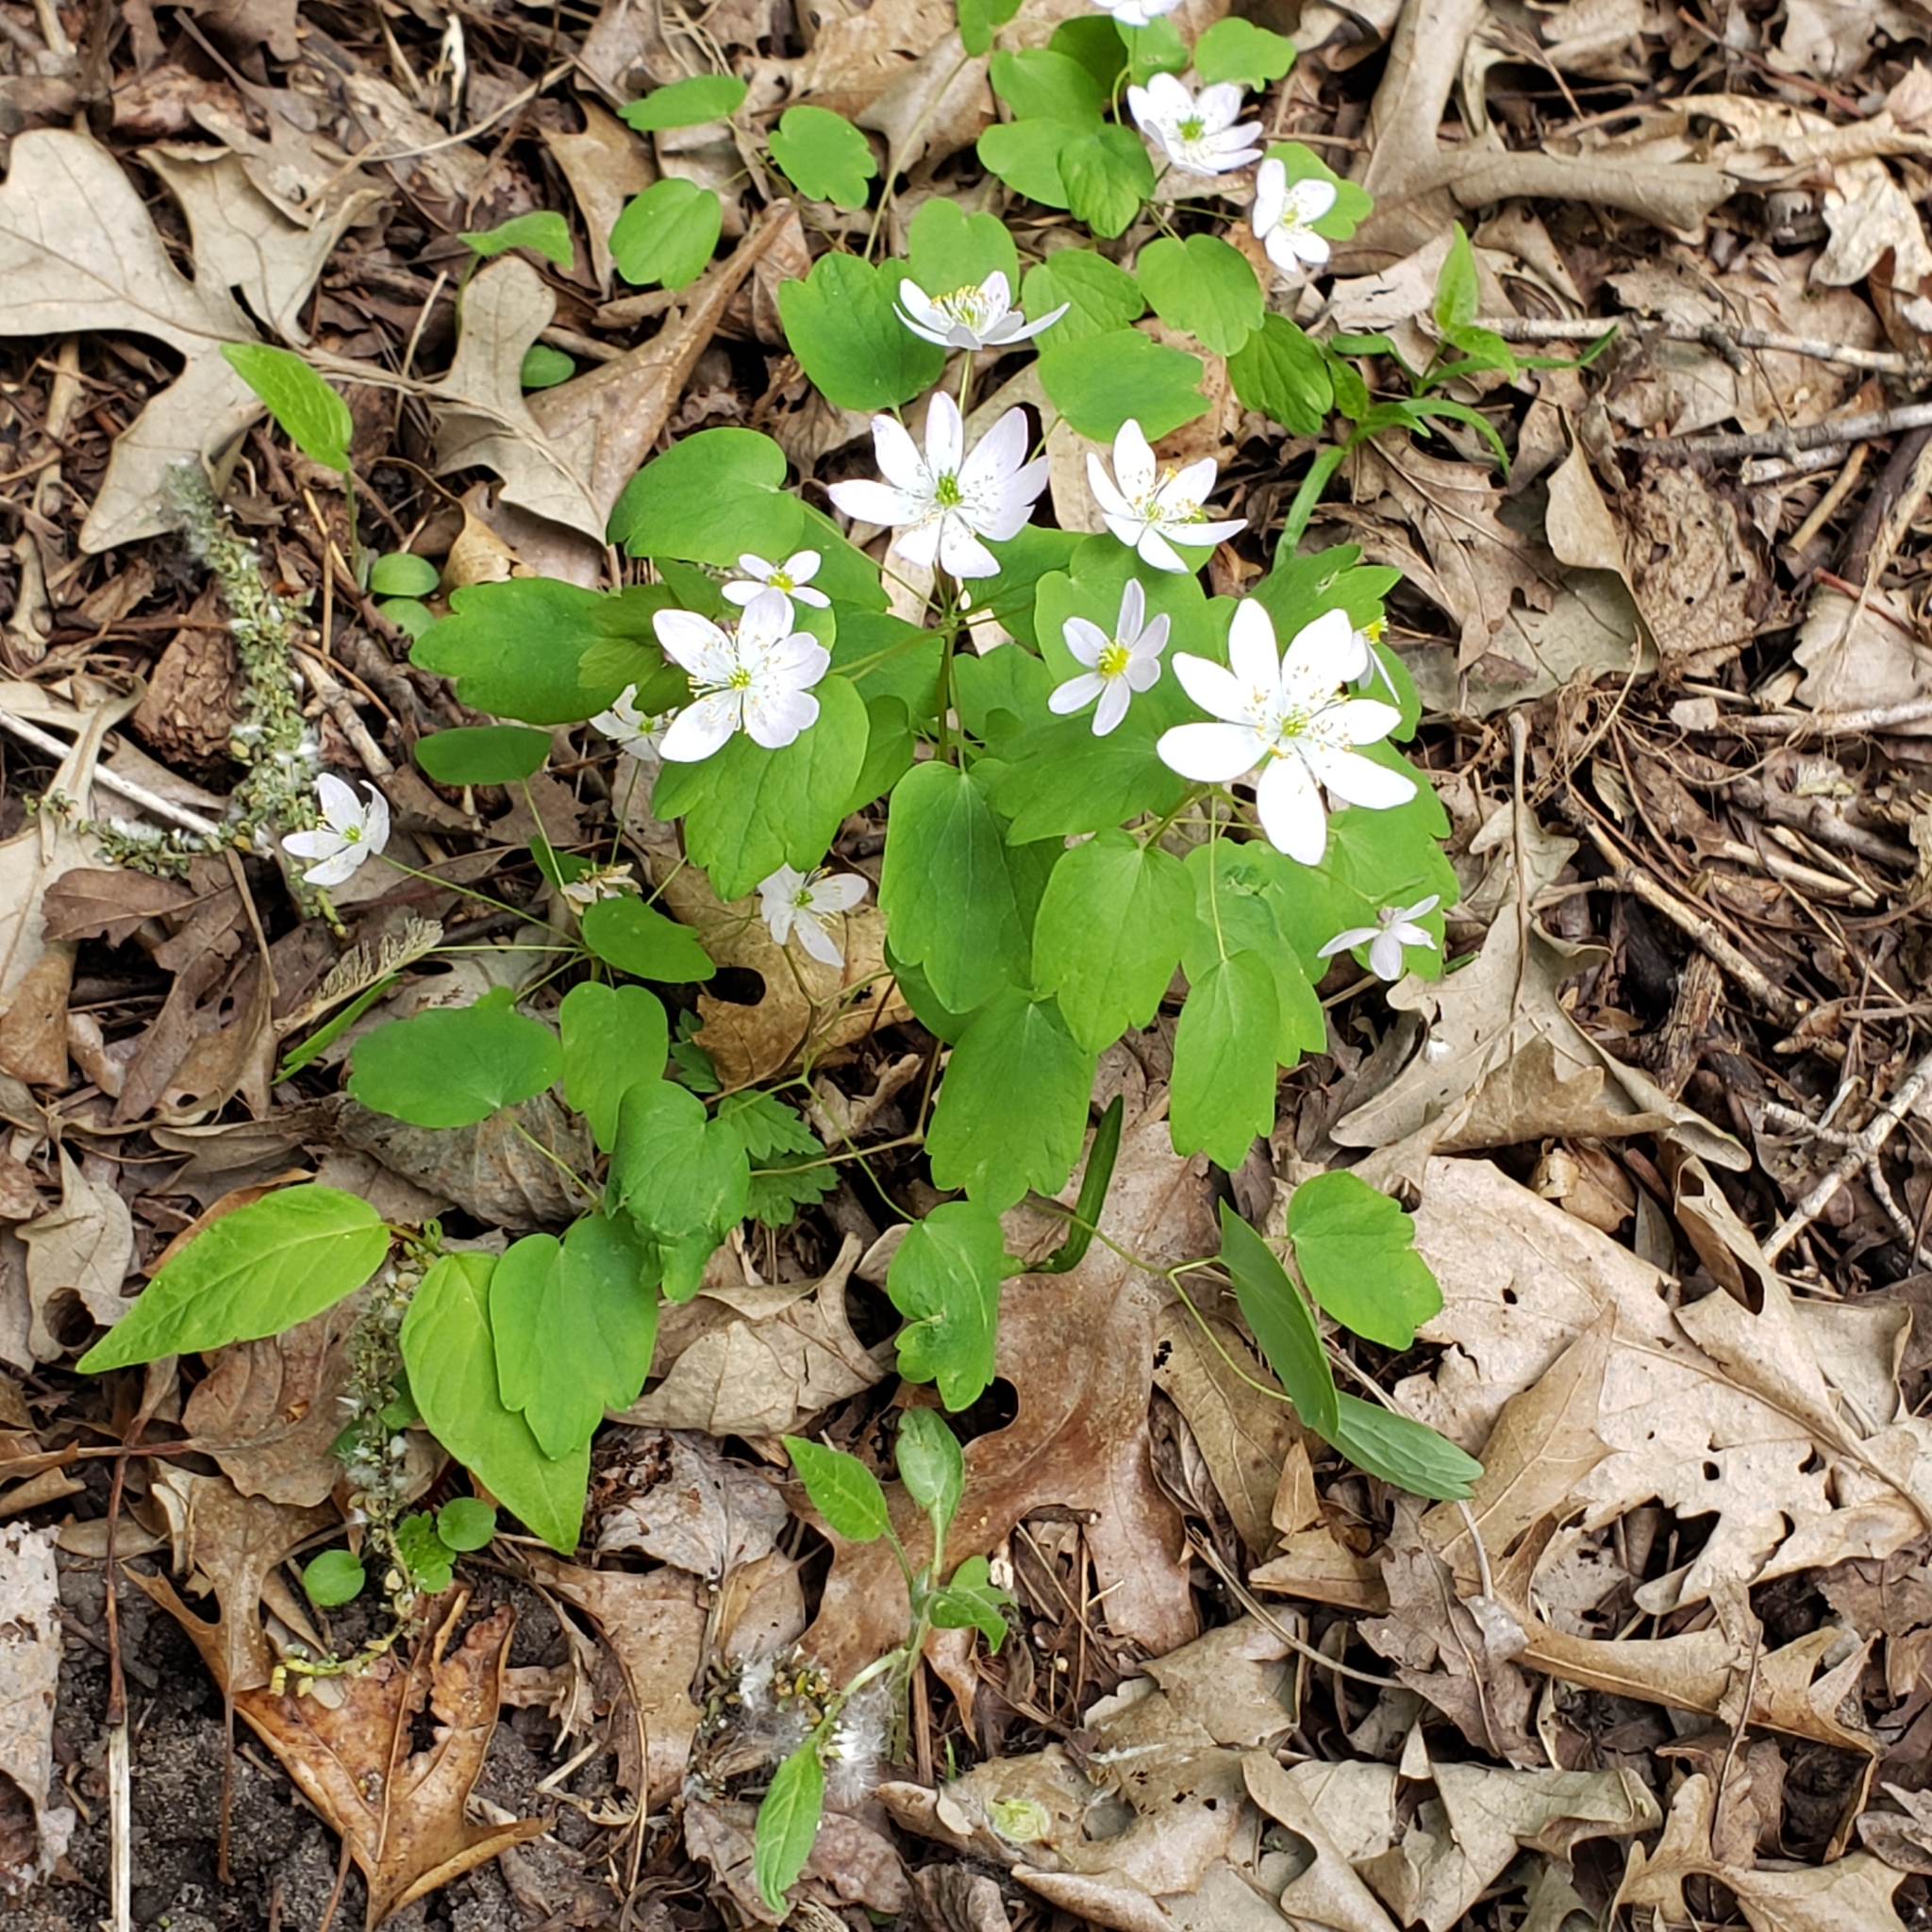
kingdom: Plantae
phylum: Tracheophyta
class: Magnoliopsida
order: Ranunculales
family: Ranunculaceae
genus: Thalictrum
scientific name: Thalictrum thalictroides
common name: Rue-anemone
